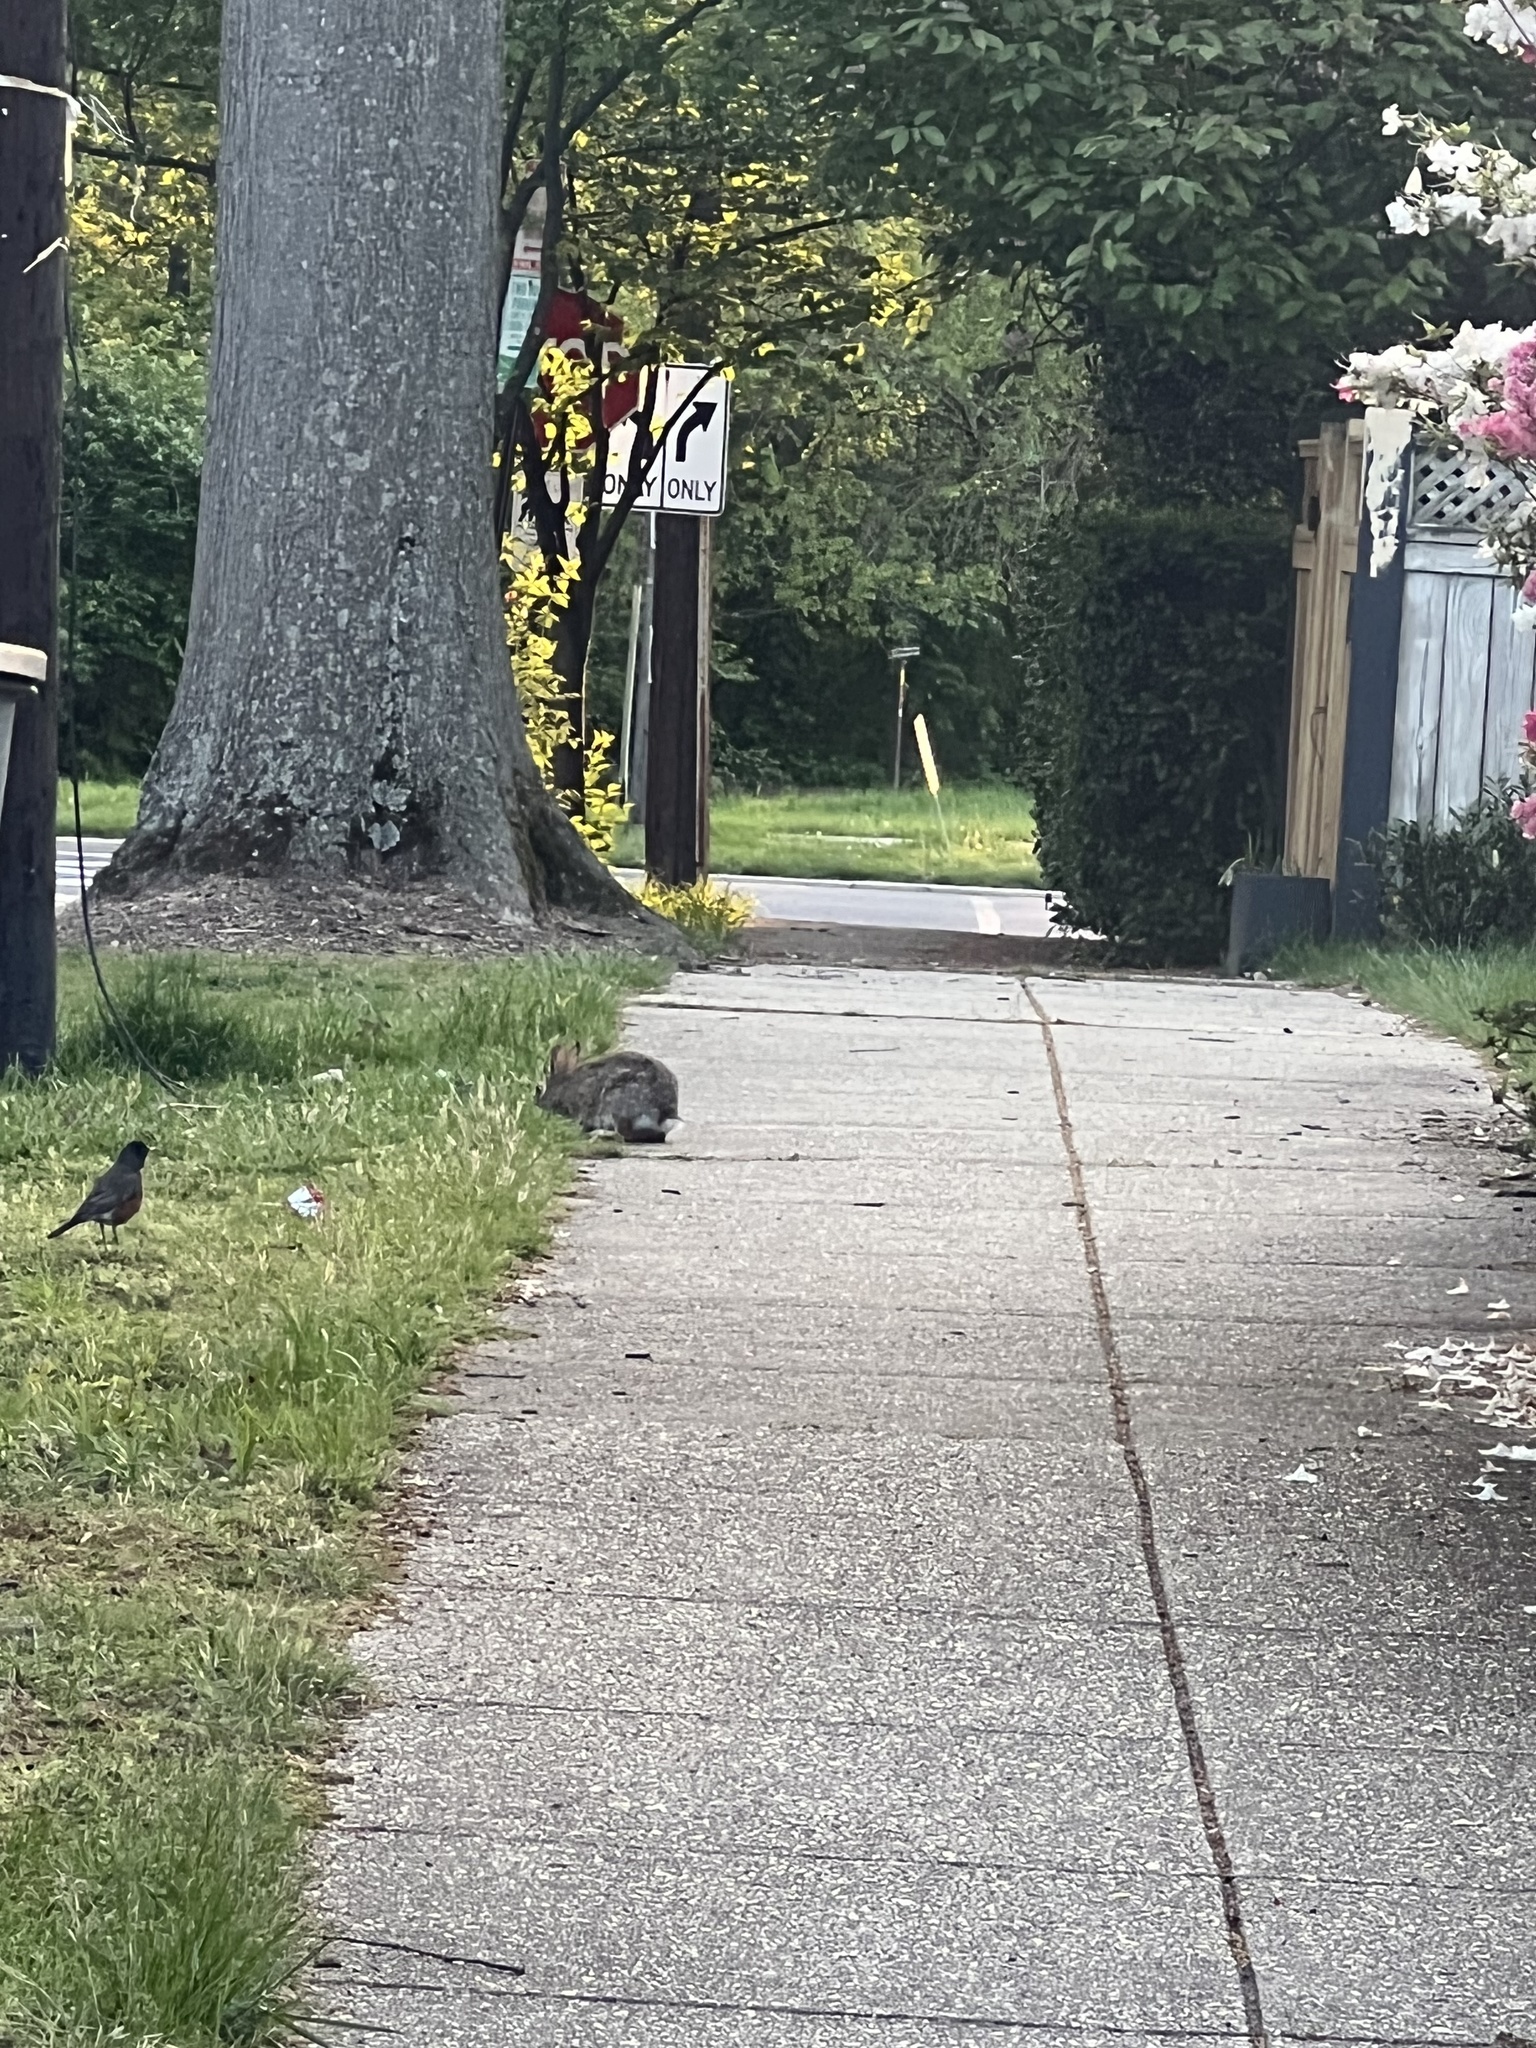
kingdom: Animalia
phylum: Chordata
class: Mammalia
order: Lagomorpha
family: Leporidae
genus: Sylvilagus
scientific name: Sylvilagus floridanus
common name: Eastern cottontail
